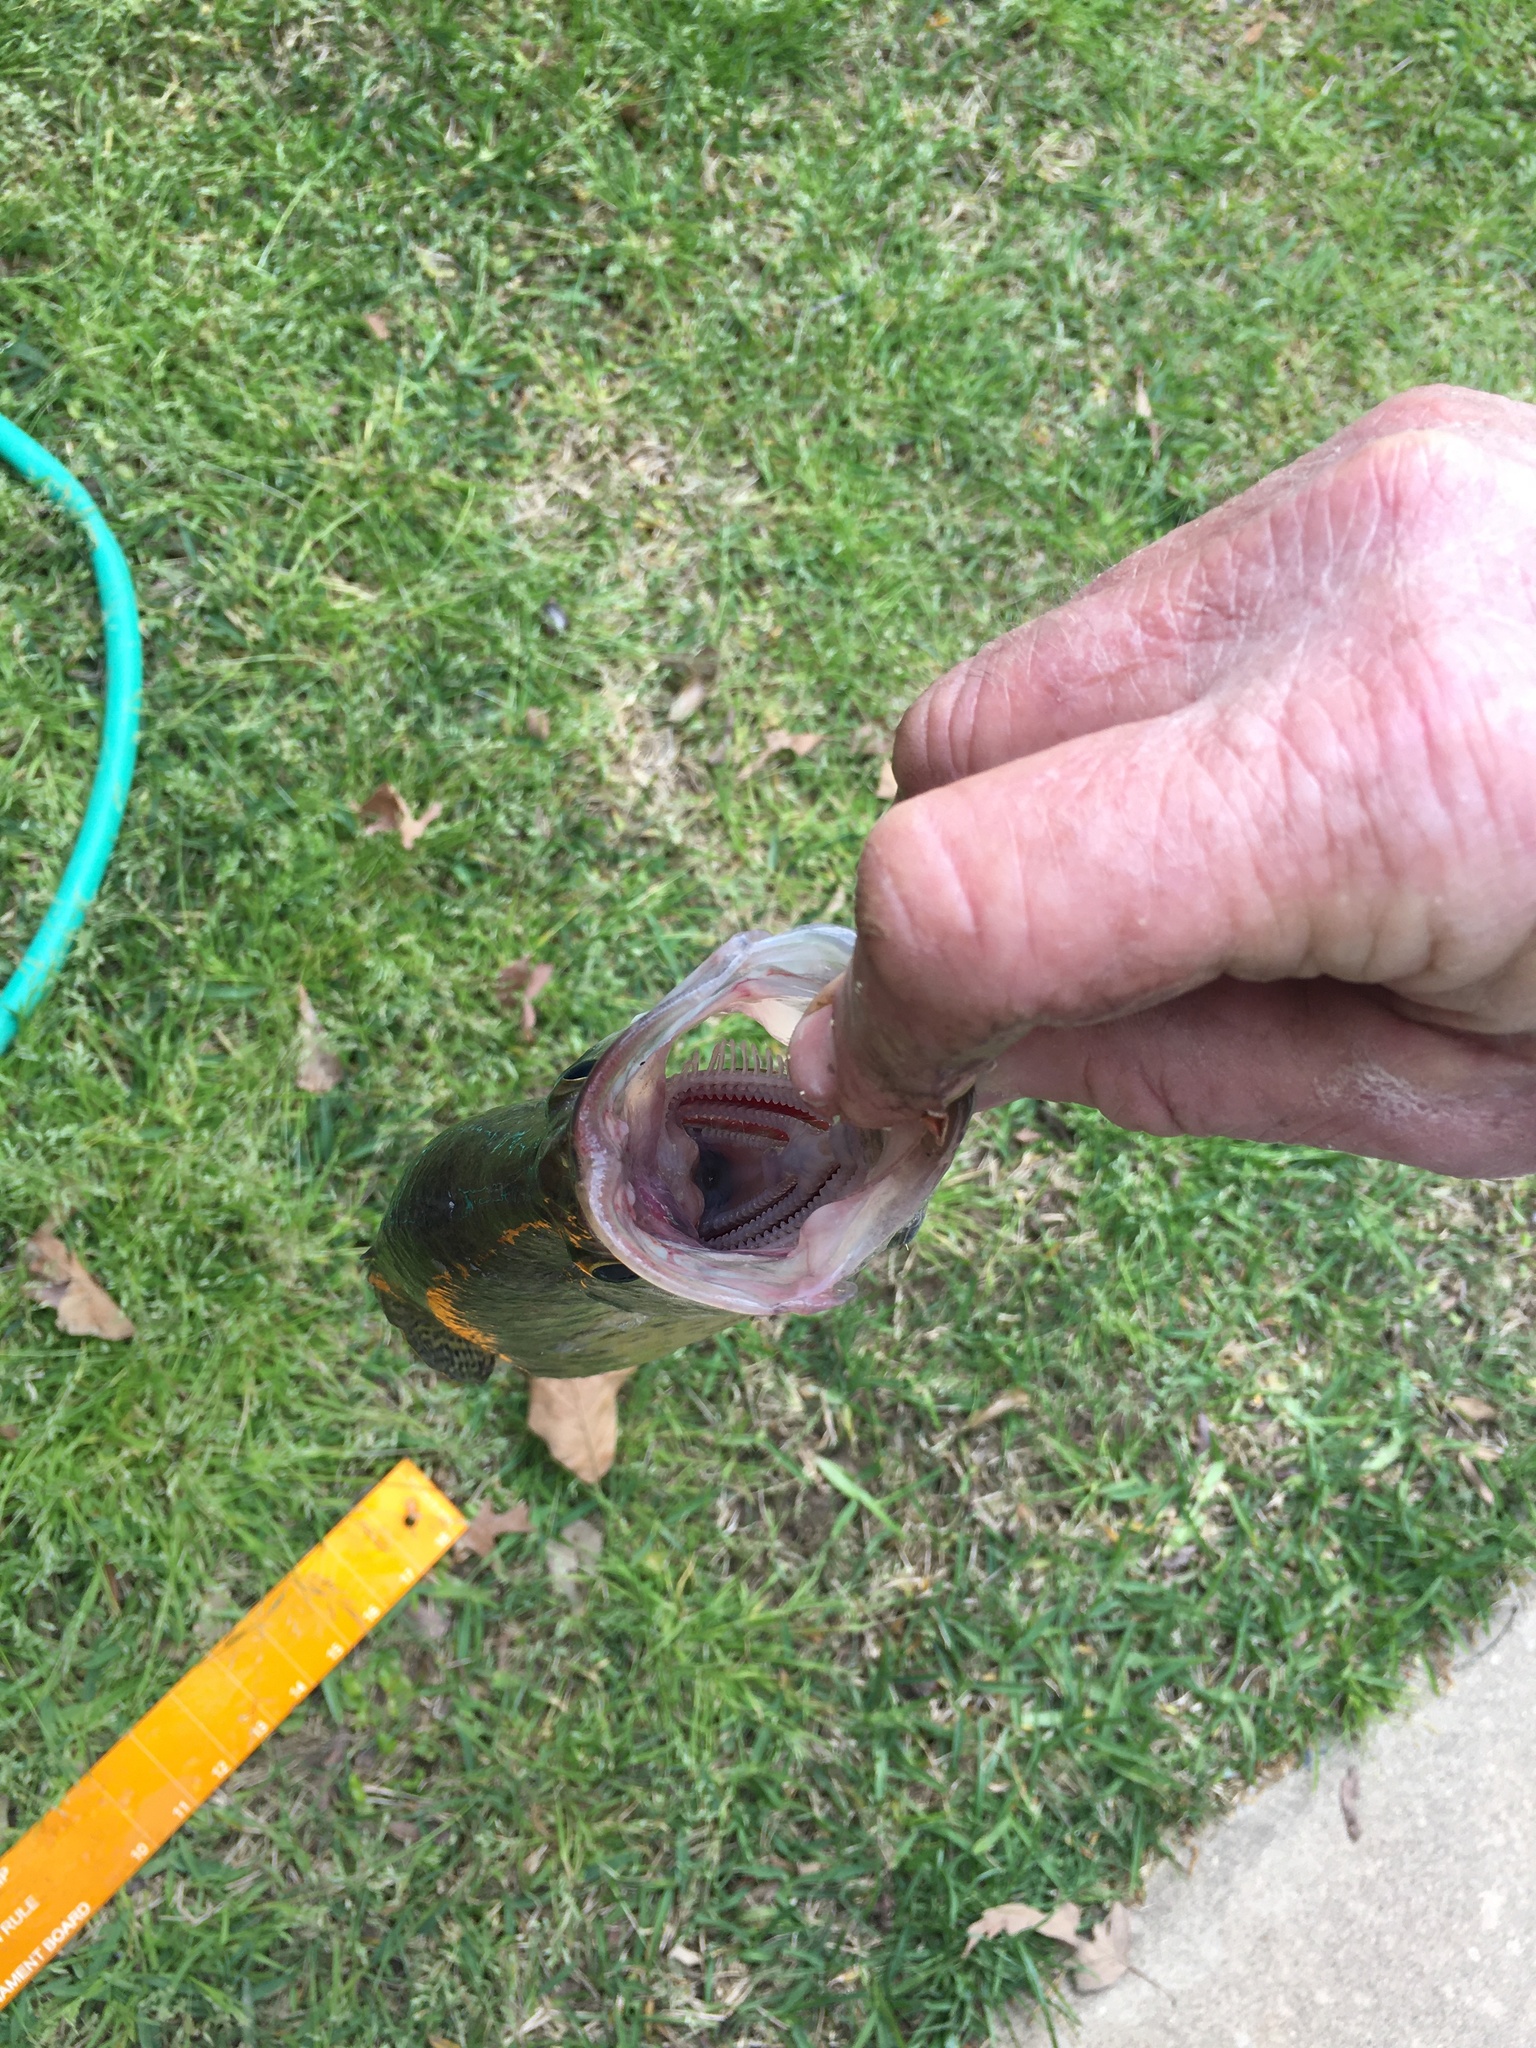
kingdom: Animalia
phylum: Chordata
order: Perciformes
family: Centrarchidae
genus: Pomoxis
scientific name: Pomoxis annularis
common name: White crappie
